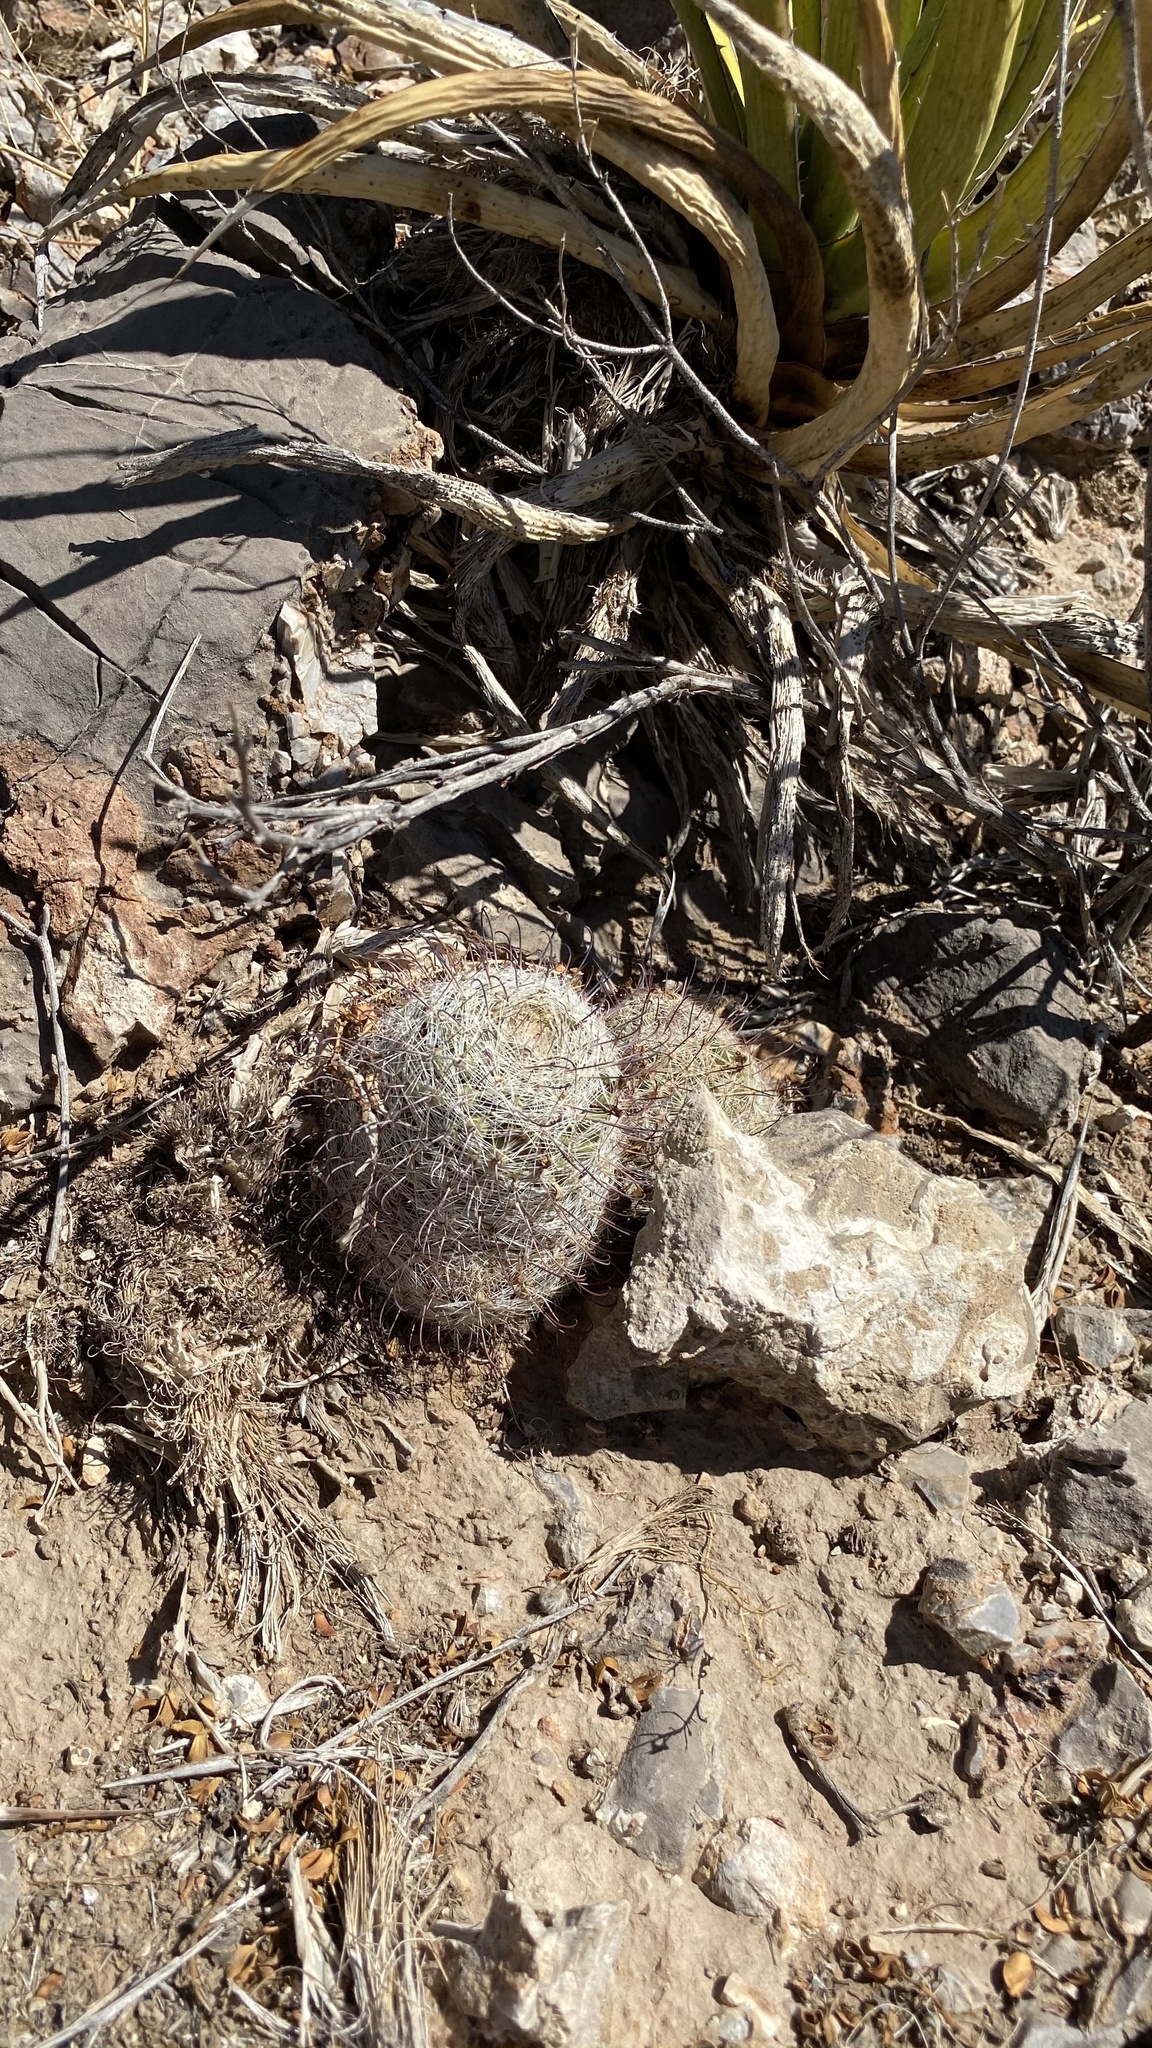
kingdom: Plantae
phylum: Tracheophyta
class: Magnoliopsida
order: Caryophyllales
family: Cactaceae
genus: Cochemiea
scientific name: Cochemiea grahamii
